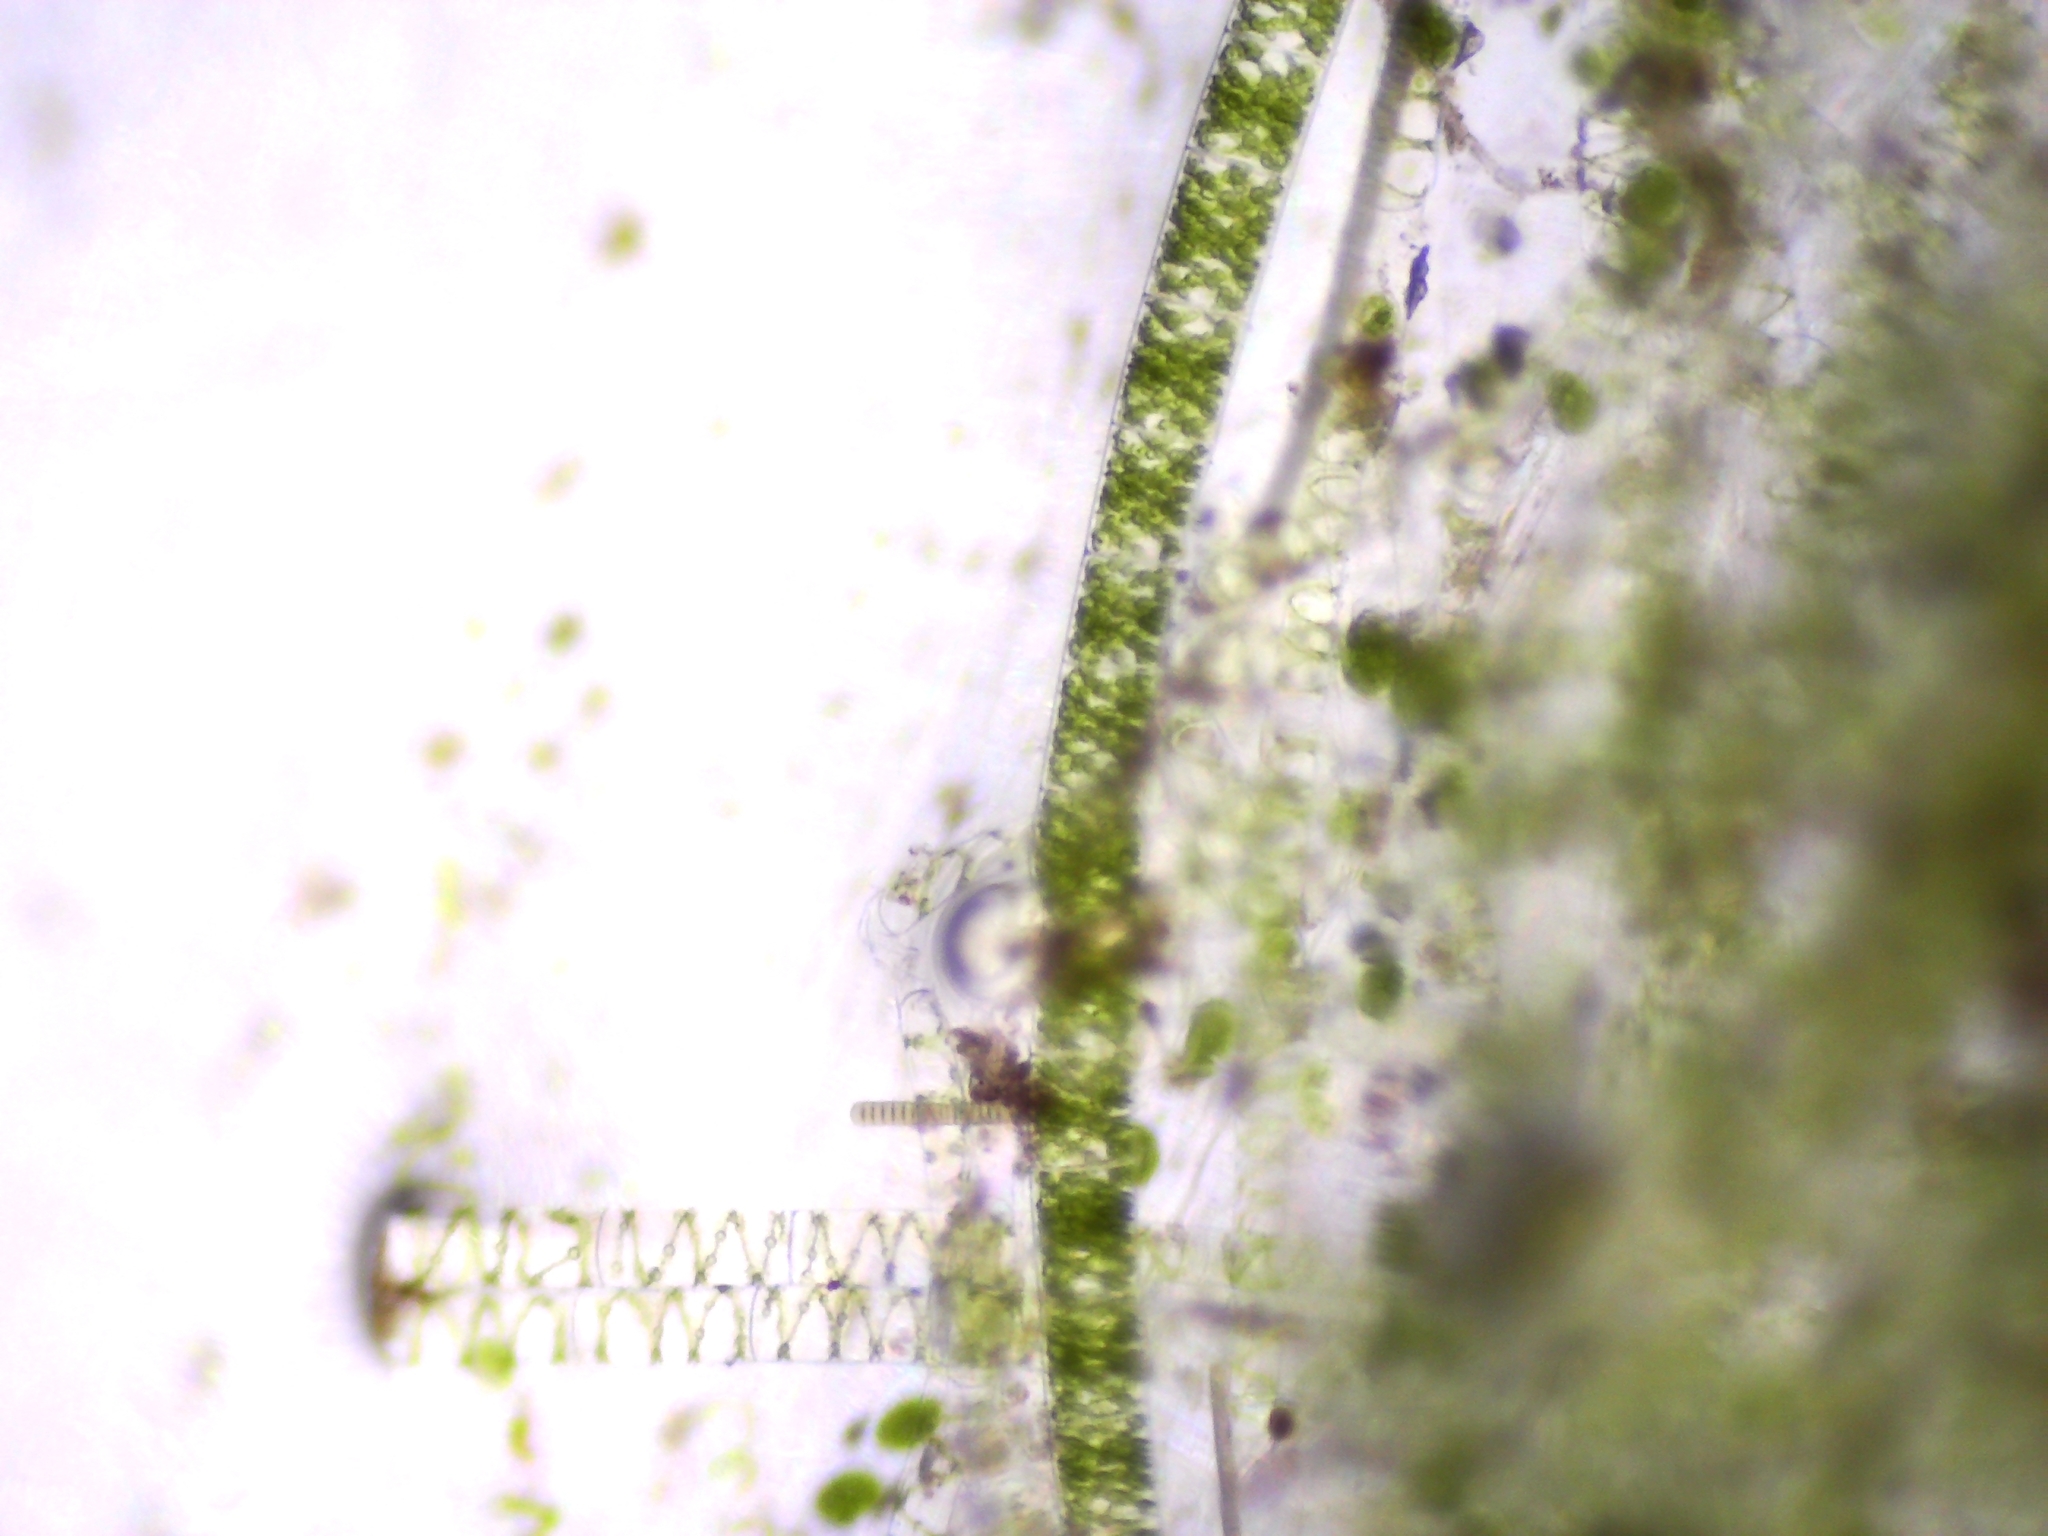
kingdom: Plantae
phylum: Charophyta
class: Zygnematophyceae
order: Zygnematales
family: Zygnemataceae
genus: Spirogyra
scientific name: Spirogyra
